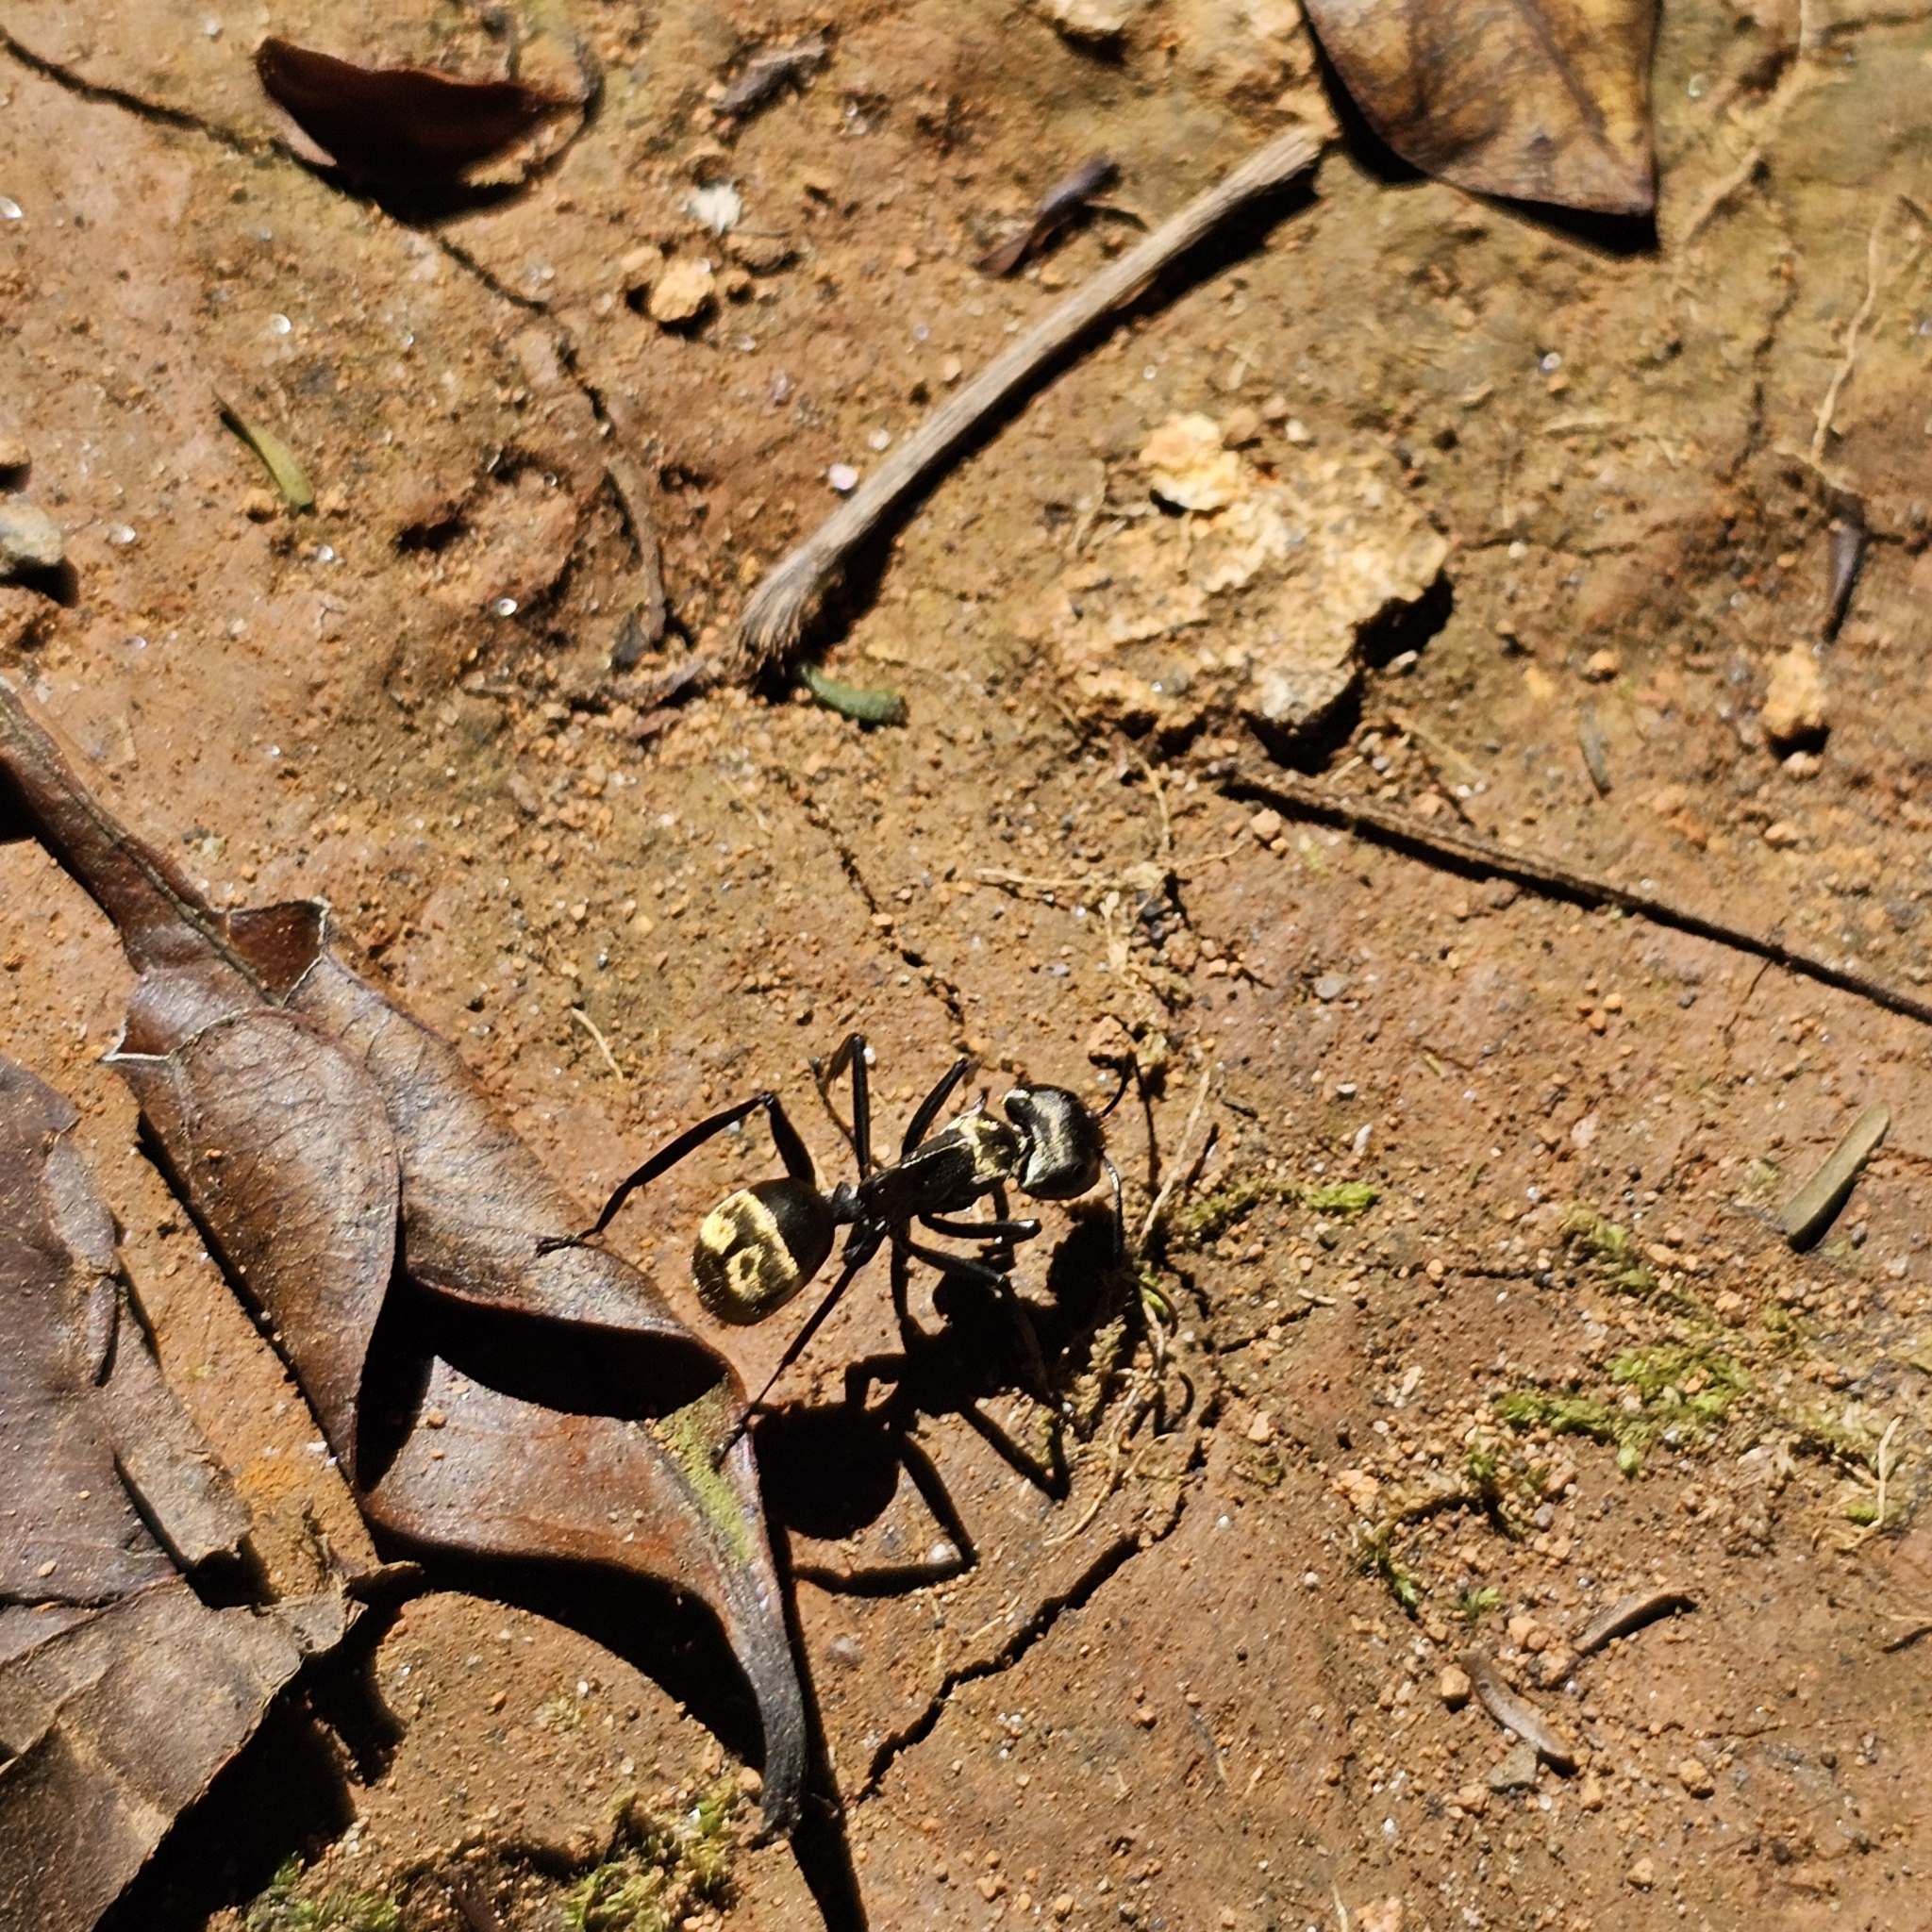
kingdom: Animalia
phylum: Arthropoda
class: Insecta
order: Hymenoptera
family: Formicidae
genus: Camponotus
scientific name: Camponotus sericeiventris
